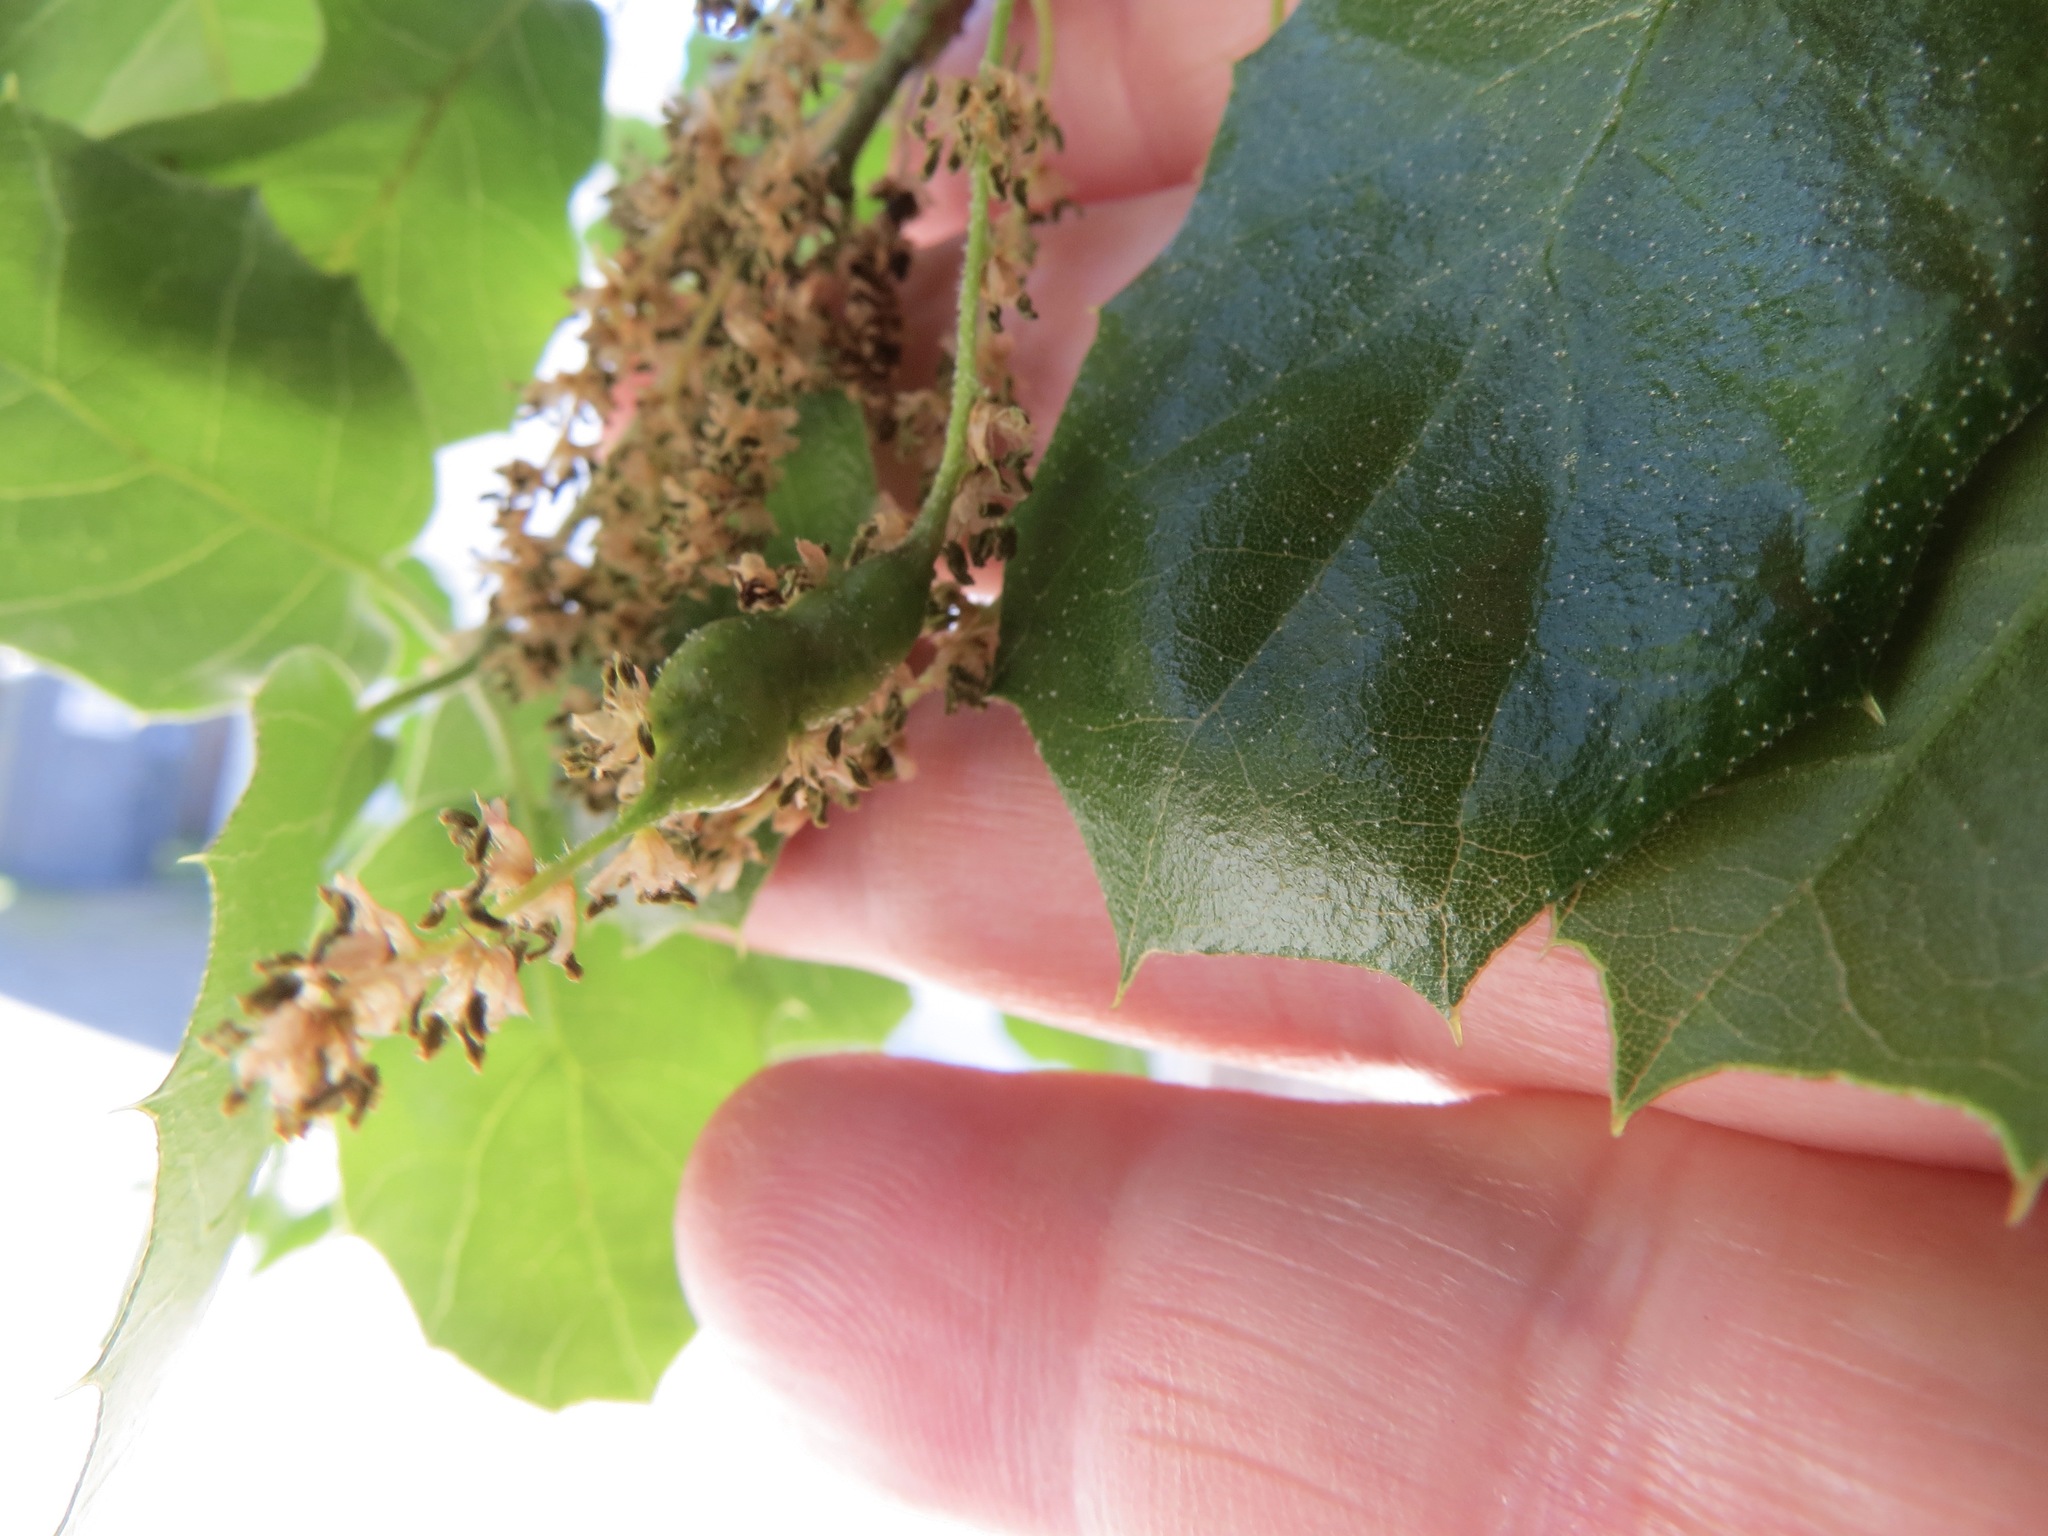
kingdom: Animalia
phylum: Arthropoda
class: Insecta
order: Hymenoptera
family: Cynipidae
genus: Callirhytis
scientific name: Callirhytis
